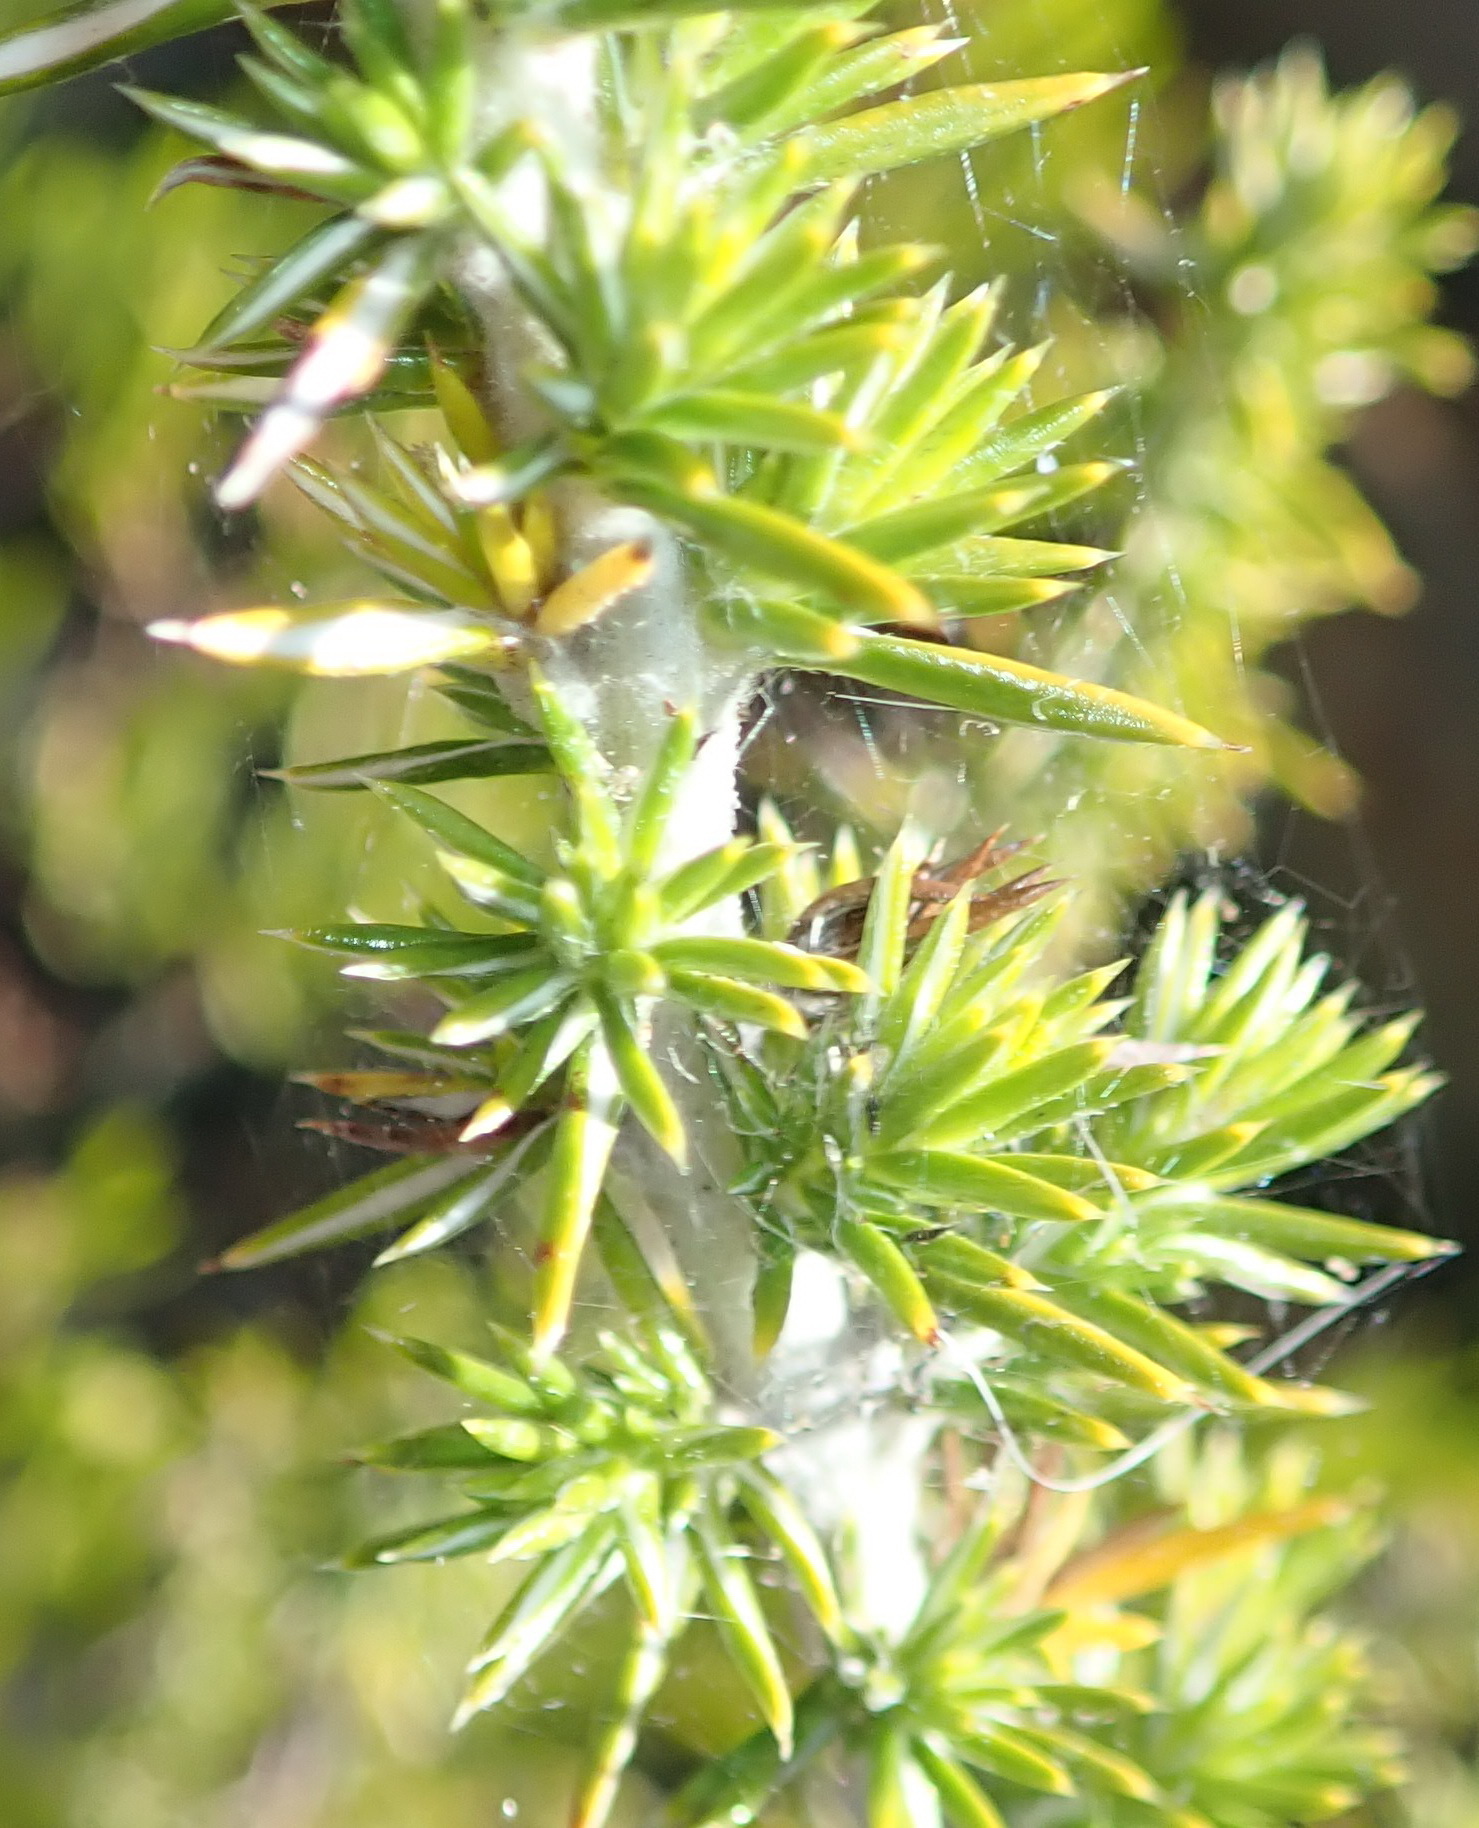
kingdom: Plantae
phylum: Tracheophyta
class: Magnoliopsida
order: Asterales
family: Asteraceae
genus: Metalasia
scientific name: Metalasia trivialis
